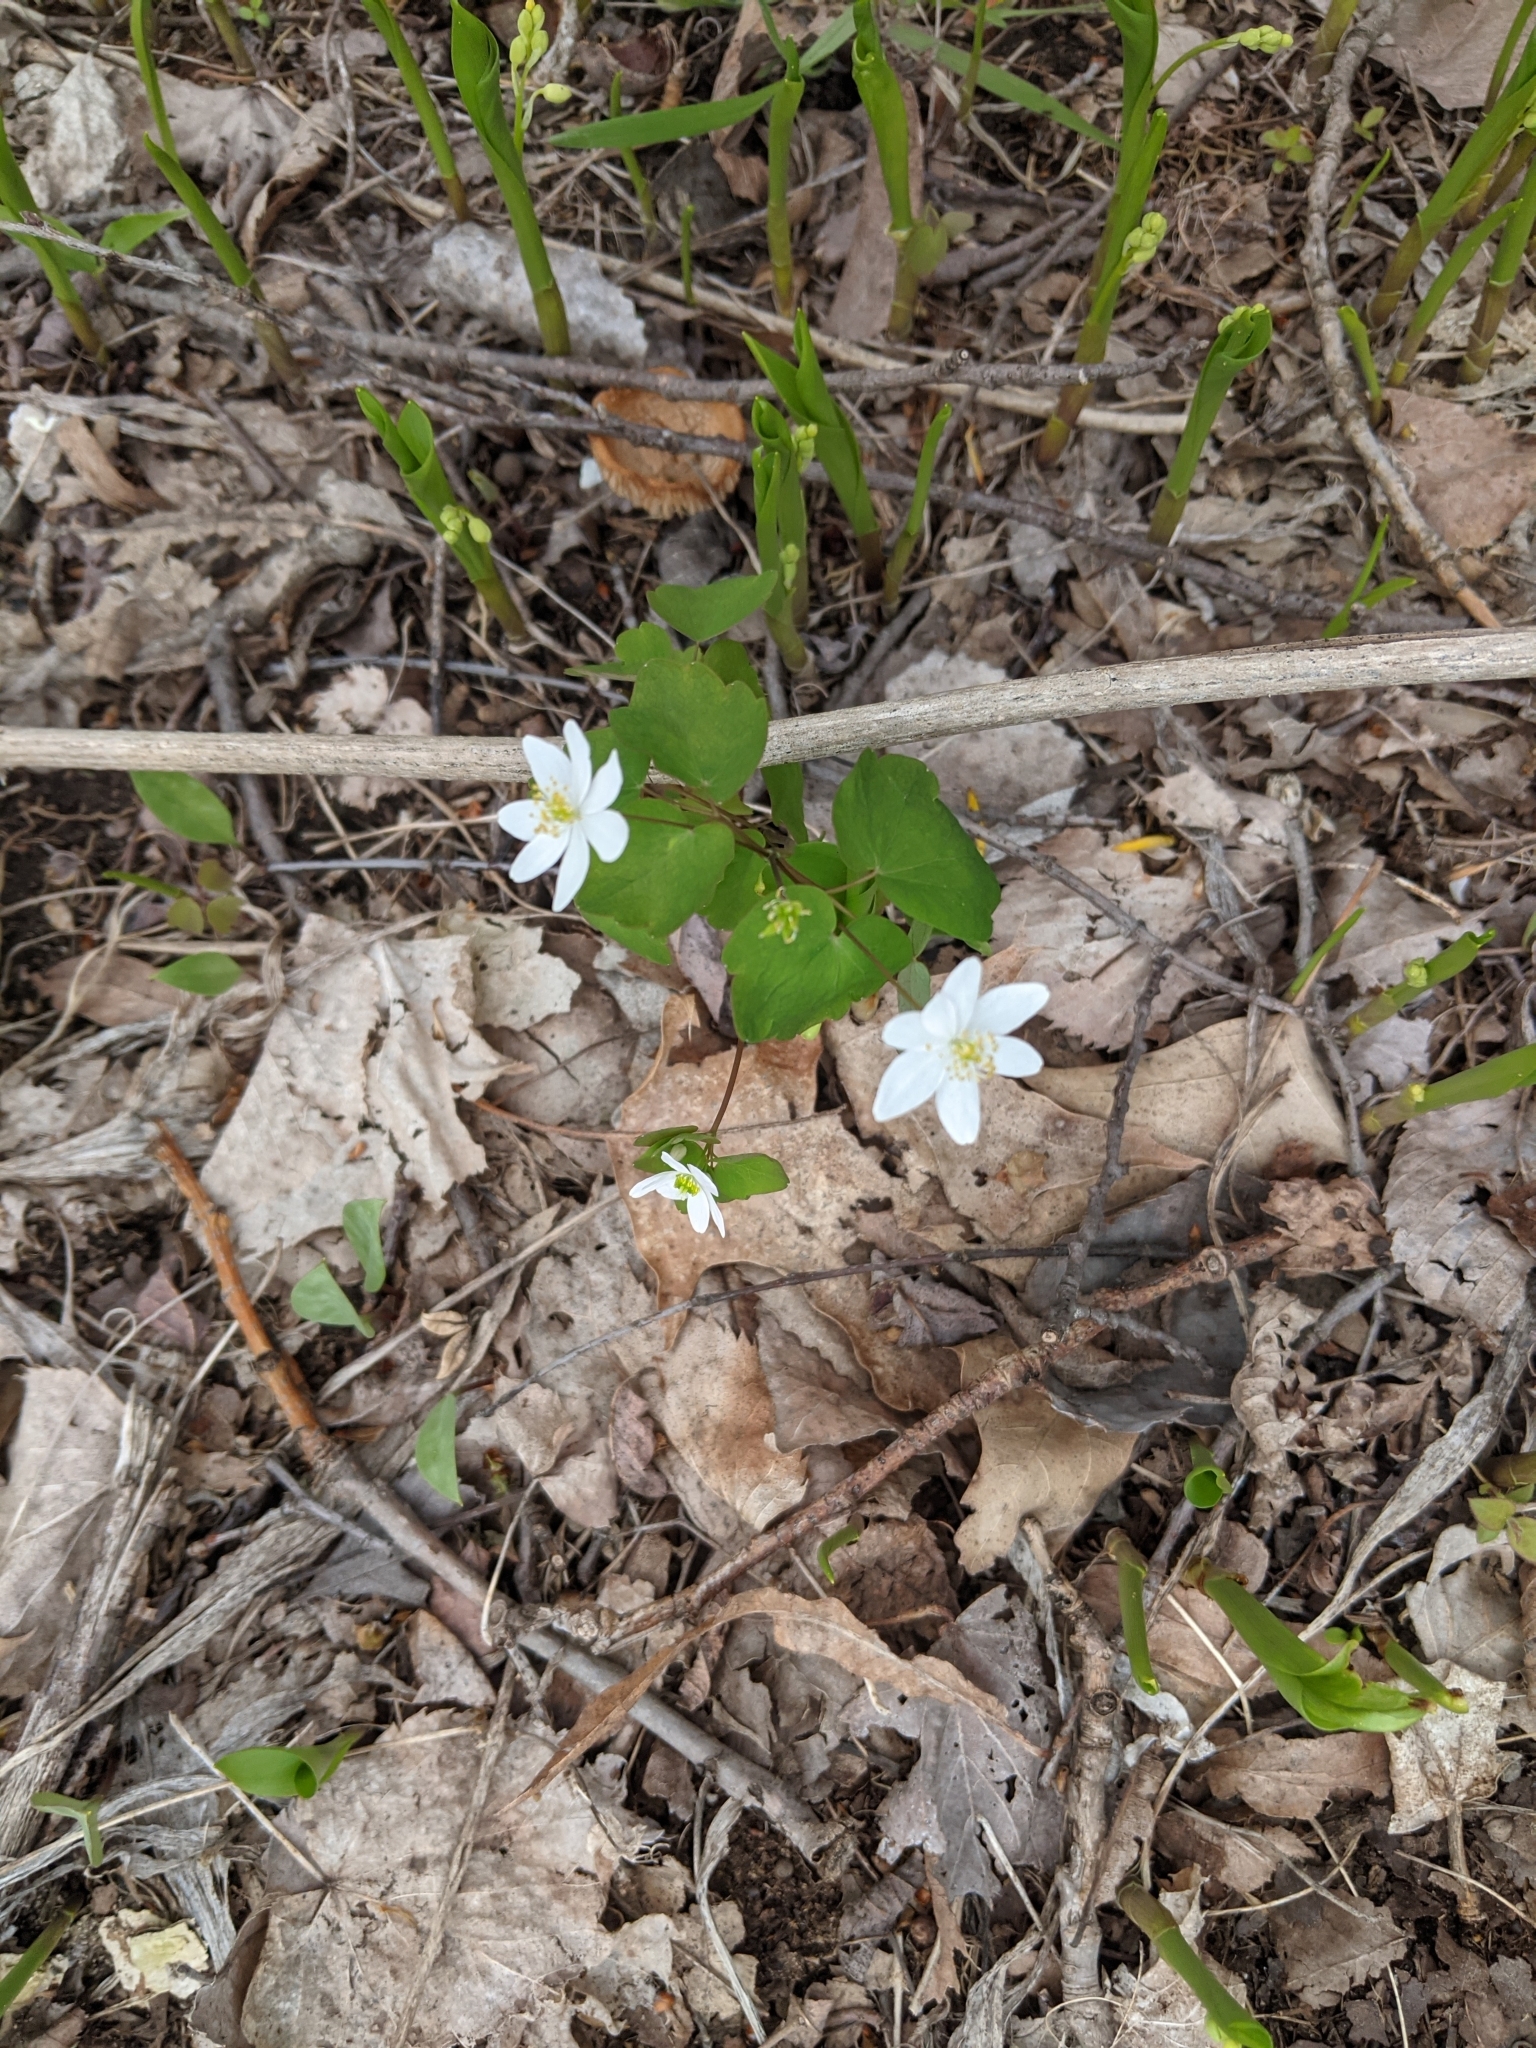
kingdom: Plantae
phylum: Tracheophyta
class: Magnoliopsida
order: Ranunculales
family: Ranunculaceae
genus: Thalictrum
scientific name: Thalictrum thalictroides
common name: Rue-anemone
